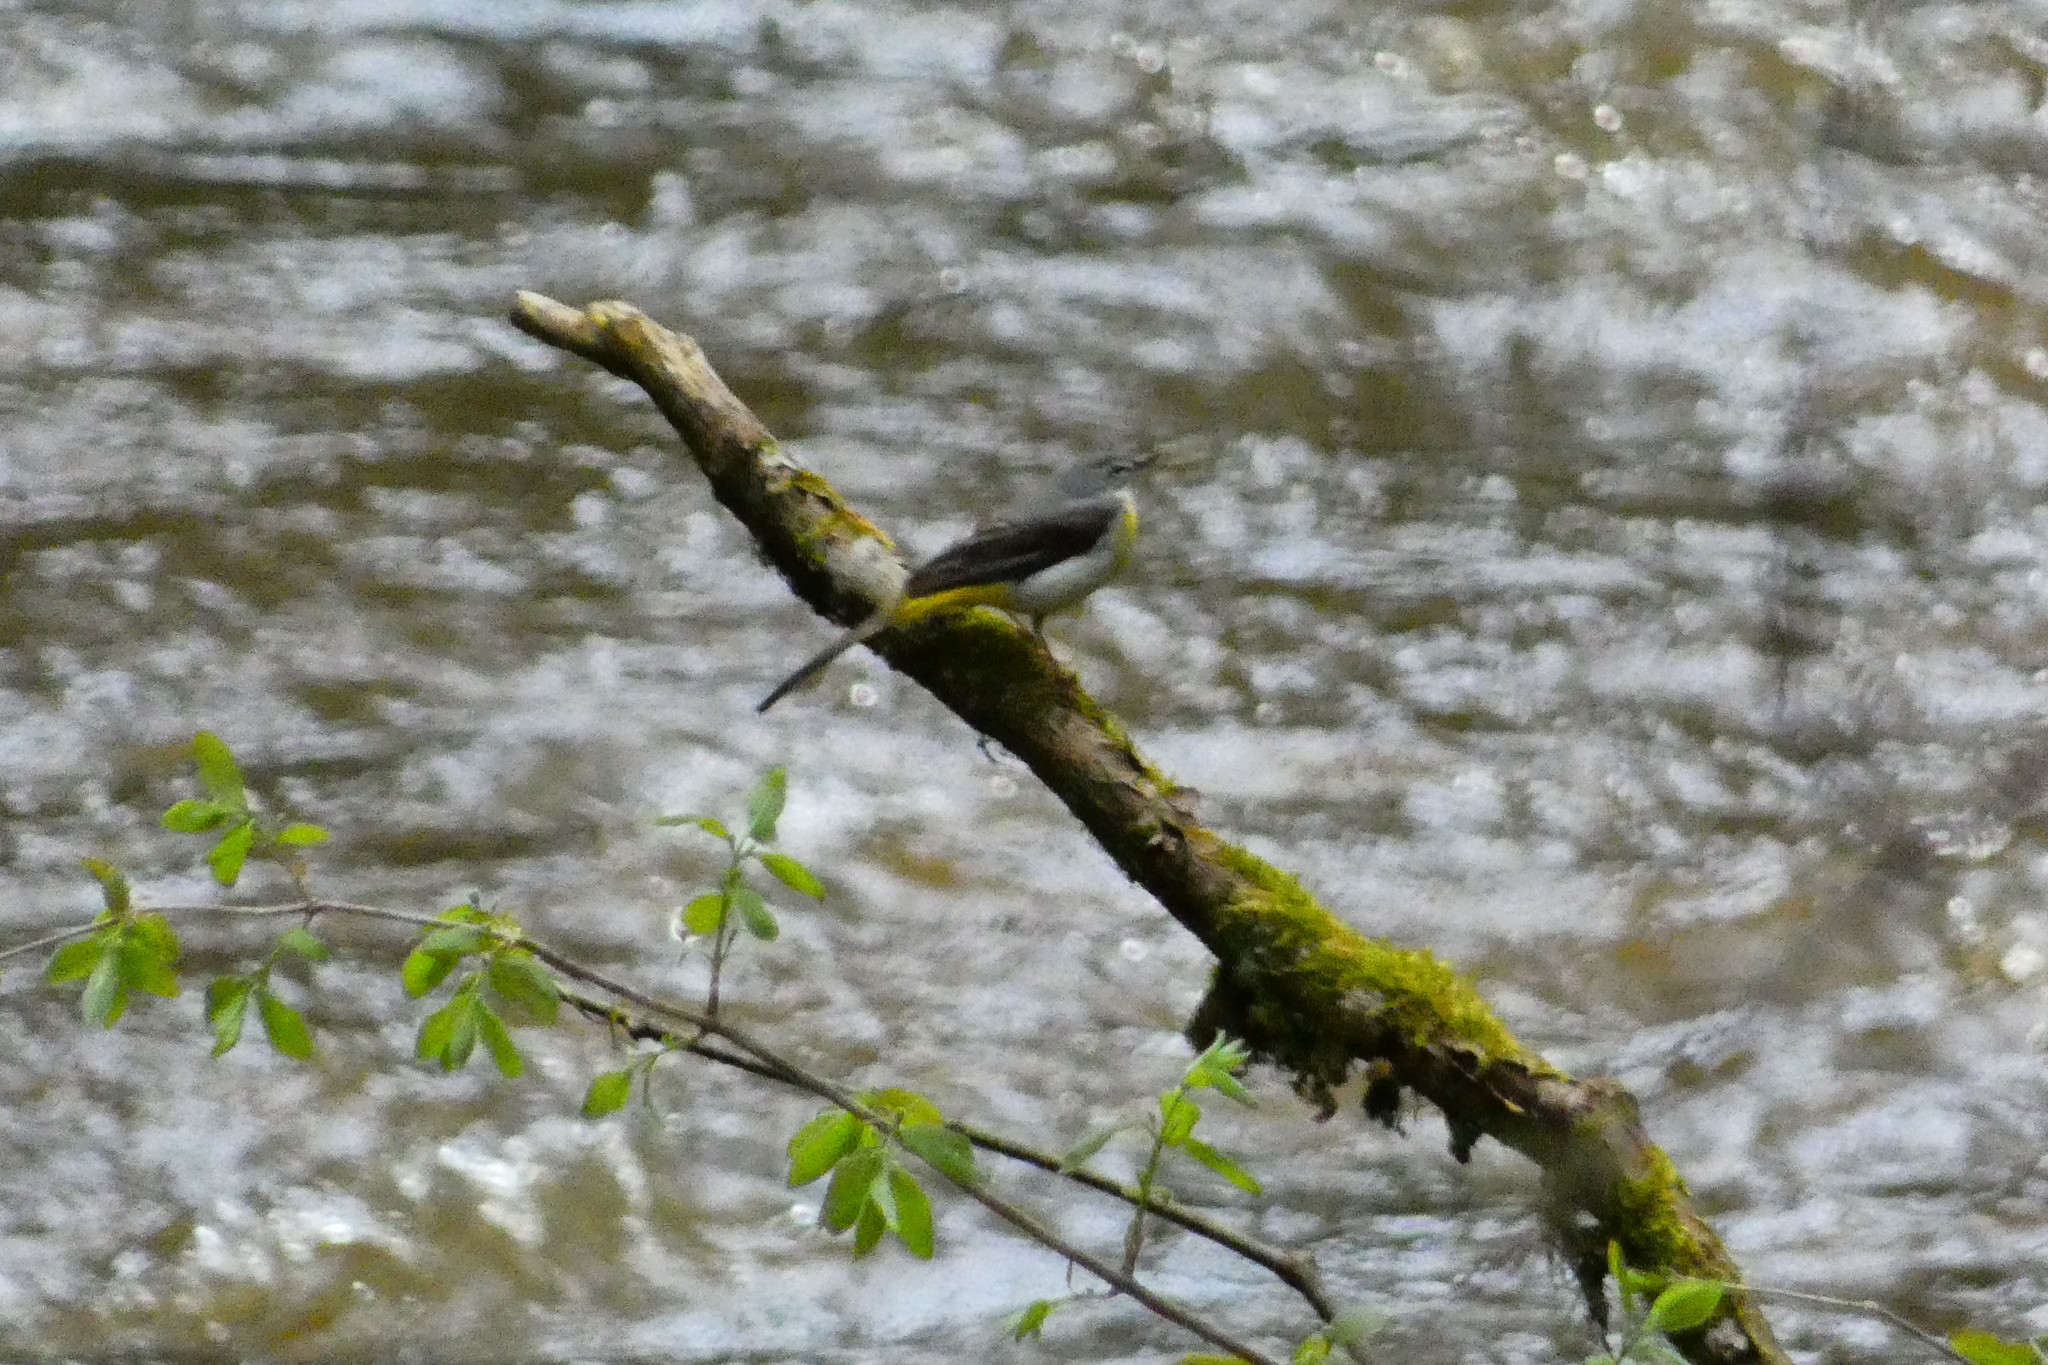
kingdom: Animalia
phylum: Chordata
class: Aves
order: Passeriformes
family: Motacillidae
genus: Motacilla
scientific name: Motacilla cinerea
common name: Grey wagtail
